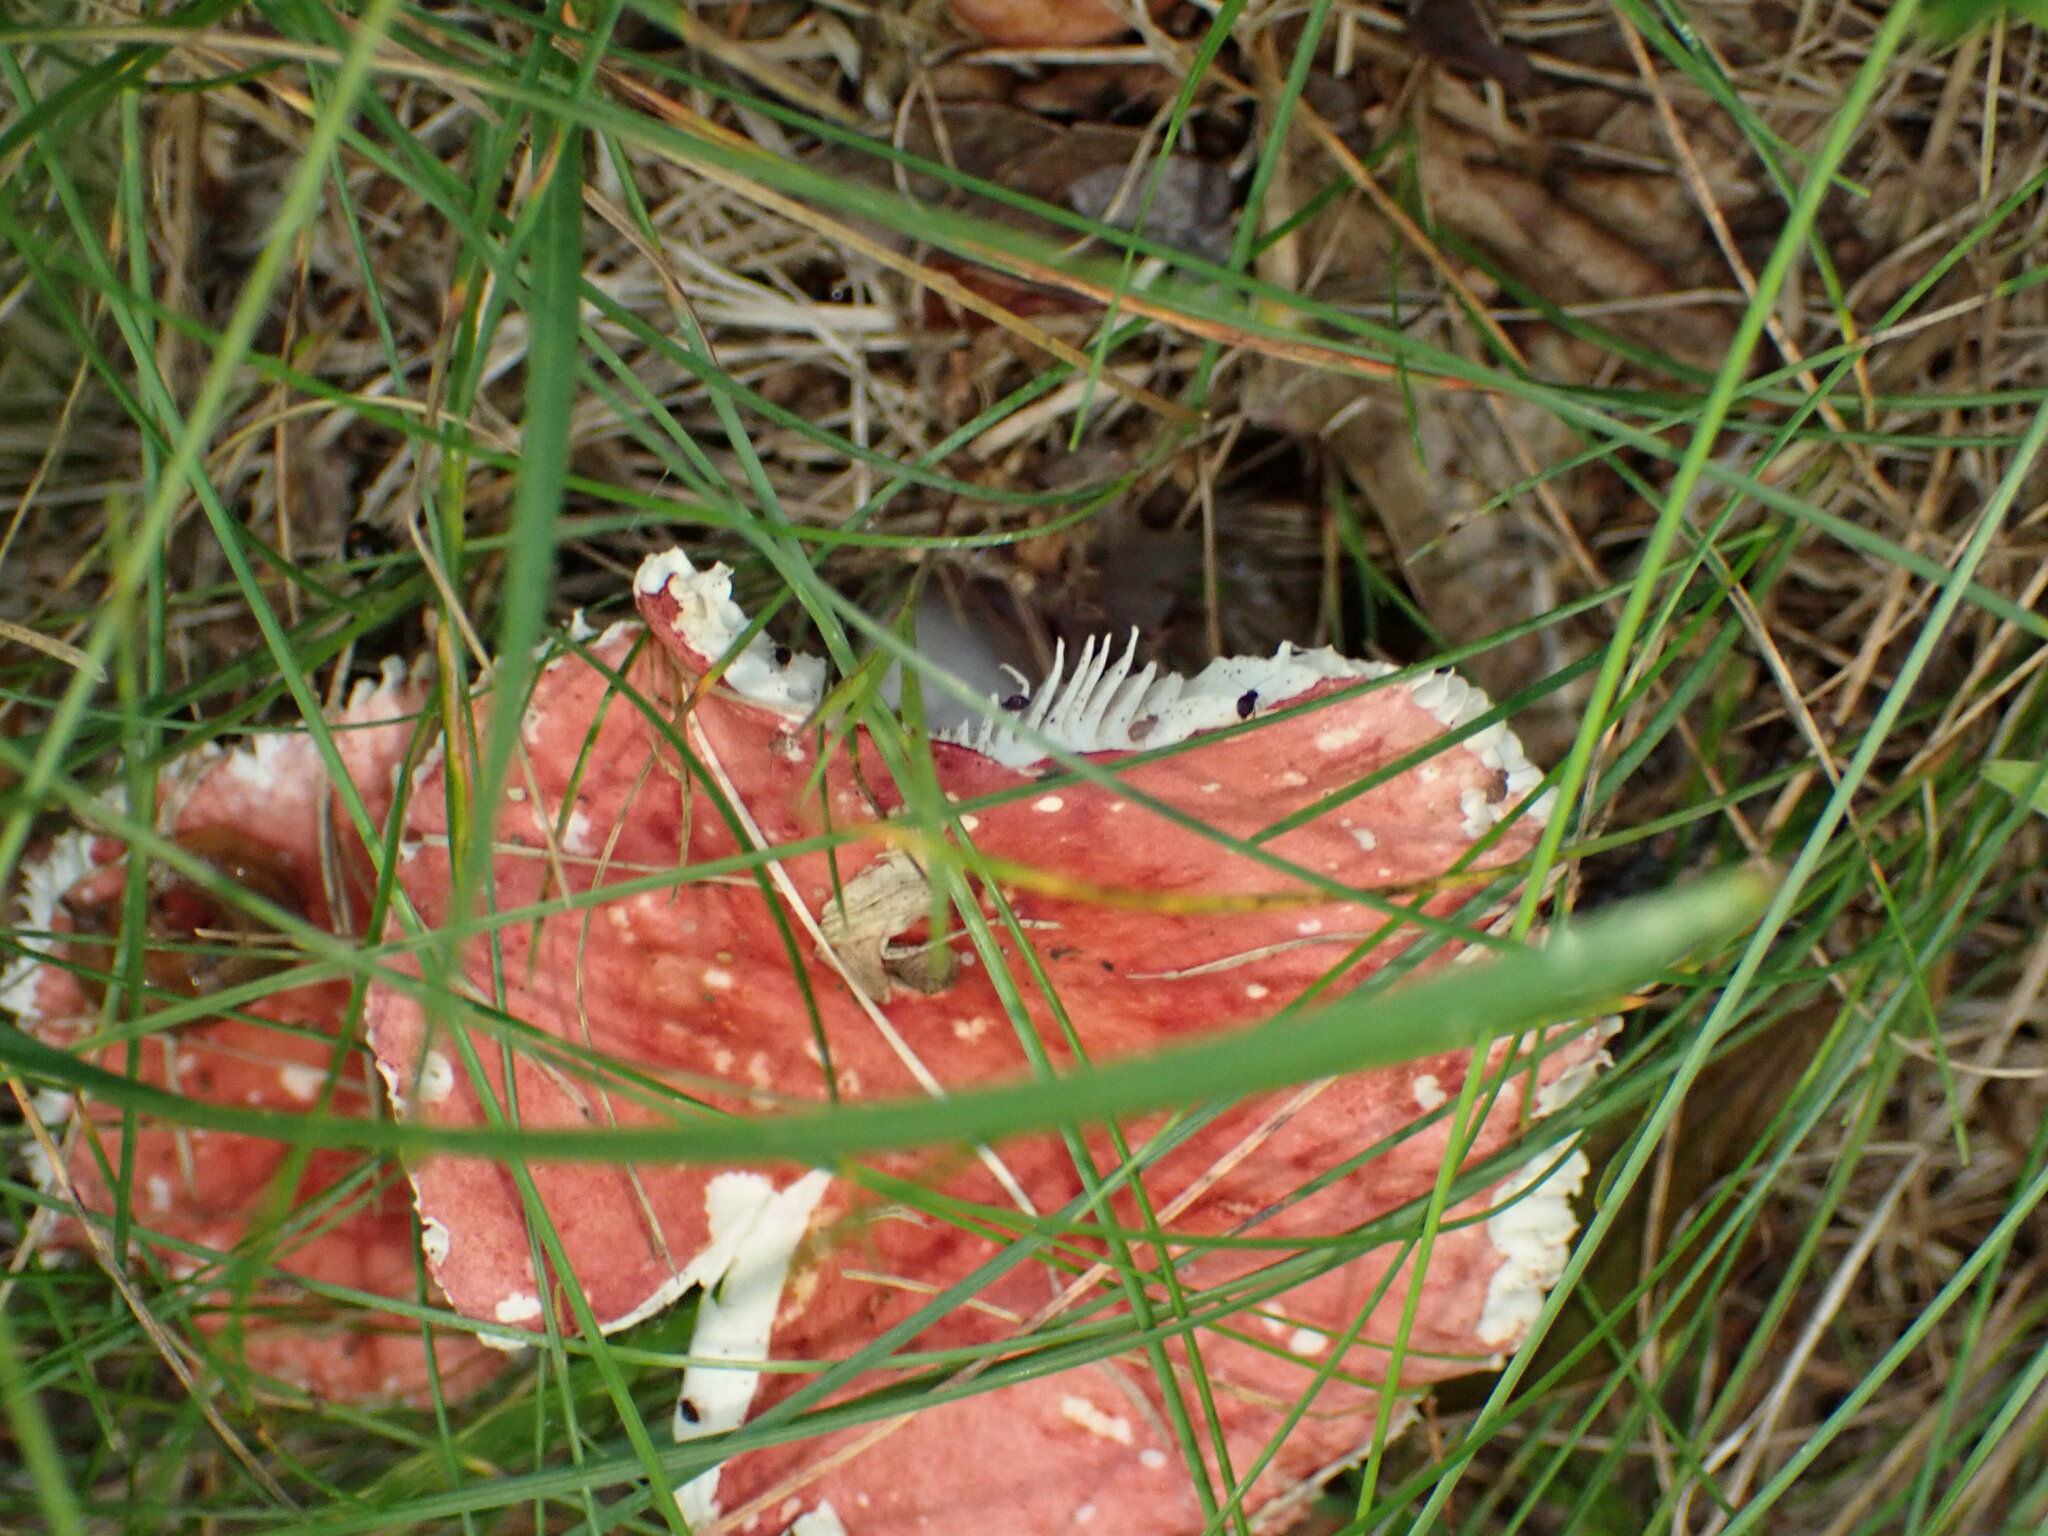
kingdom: Fungi
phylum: Basidiomycota
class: Agaricomycetes
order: Russulales
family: Russulaceae
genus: Russula
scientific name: Russula
